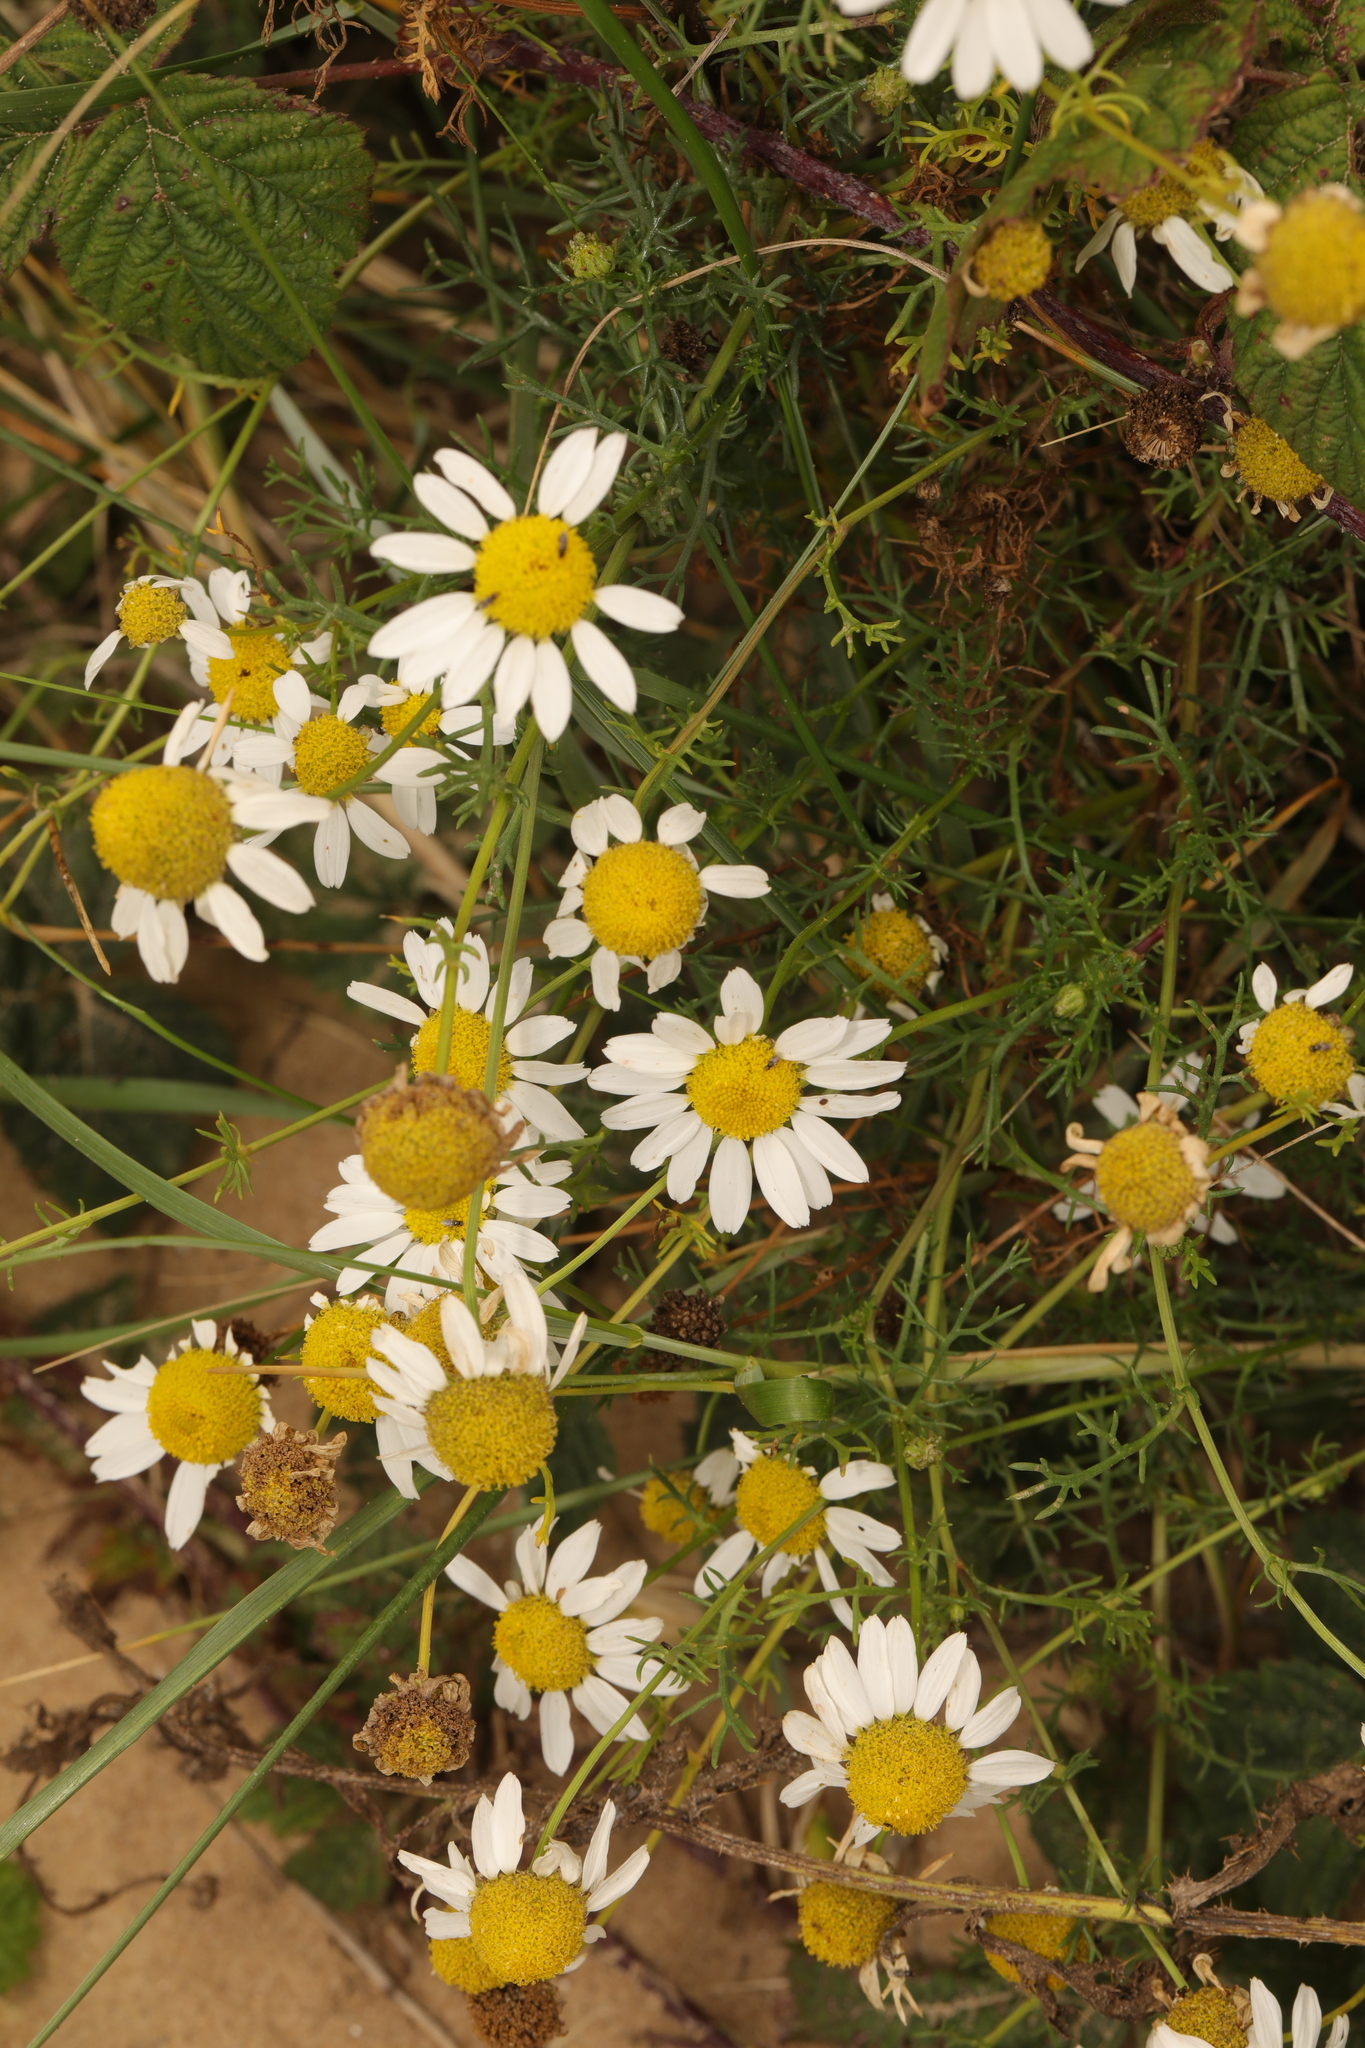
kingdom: Plantae
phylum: Tracheophyta
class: Magnoliopsida
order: Asterales
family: Asteraceae
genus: Tripleurospermum
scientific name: Tripleurospermum maritimum
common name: Sea mayweed
